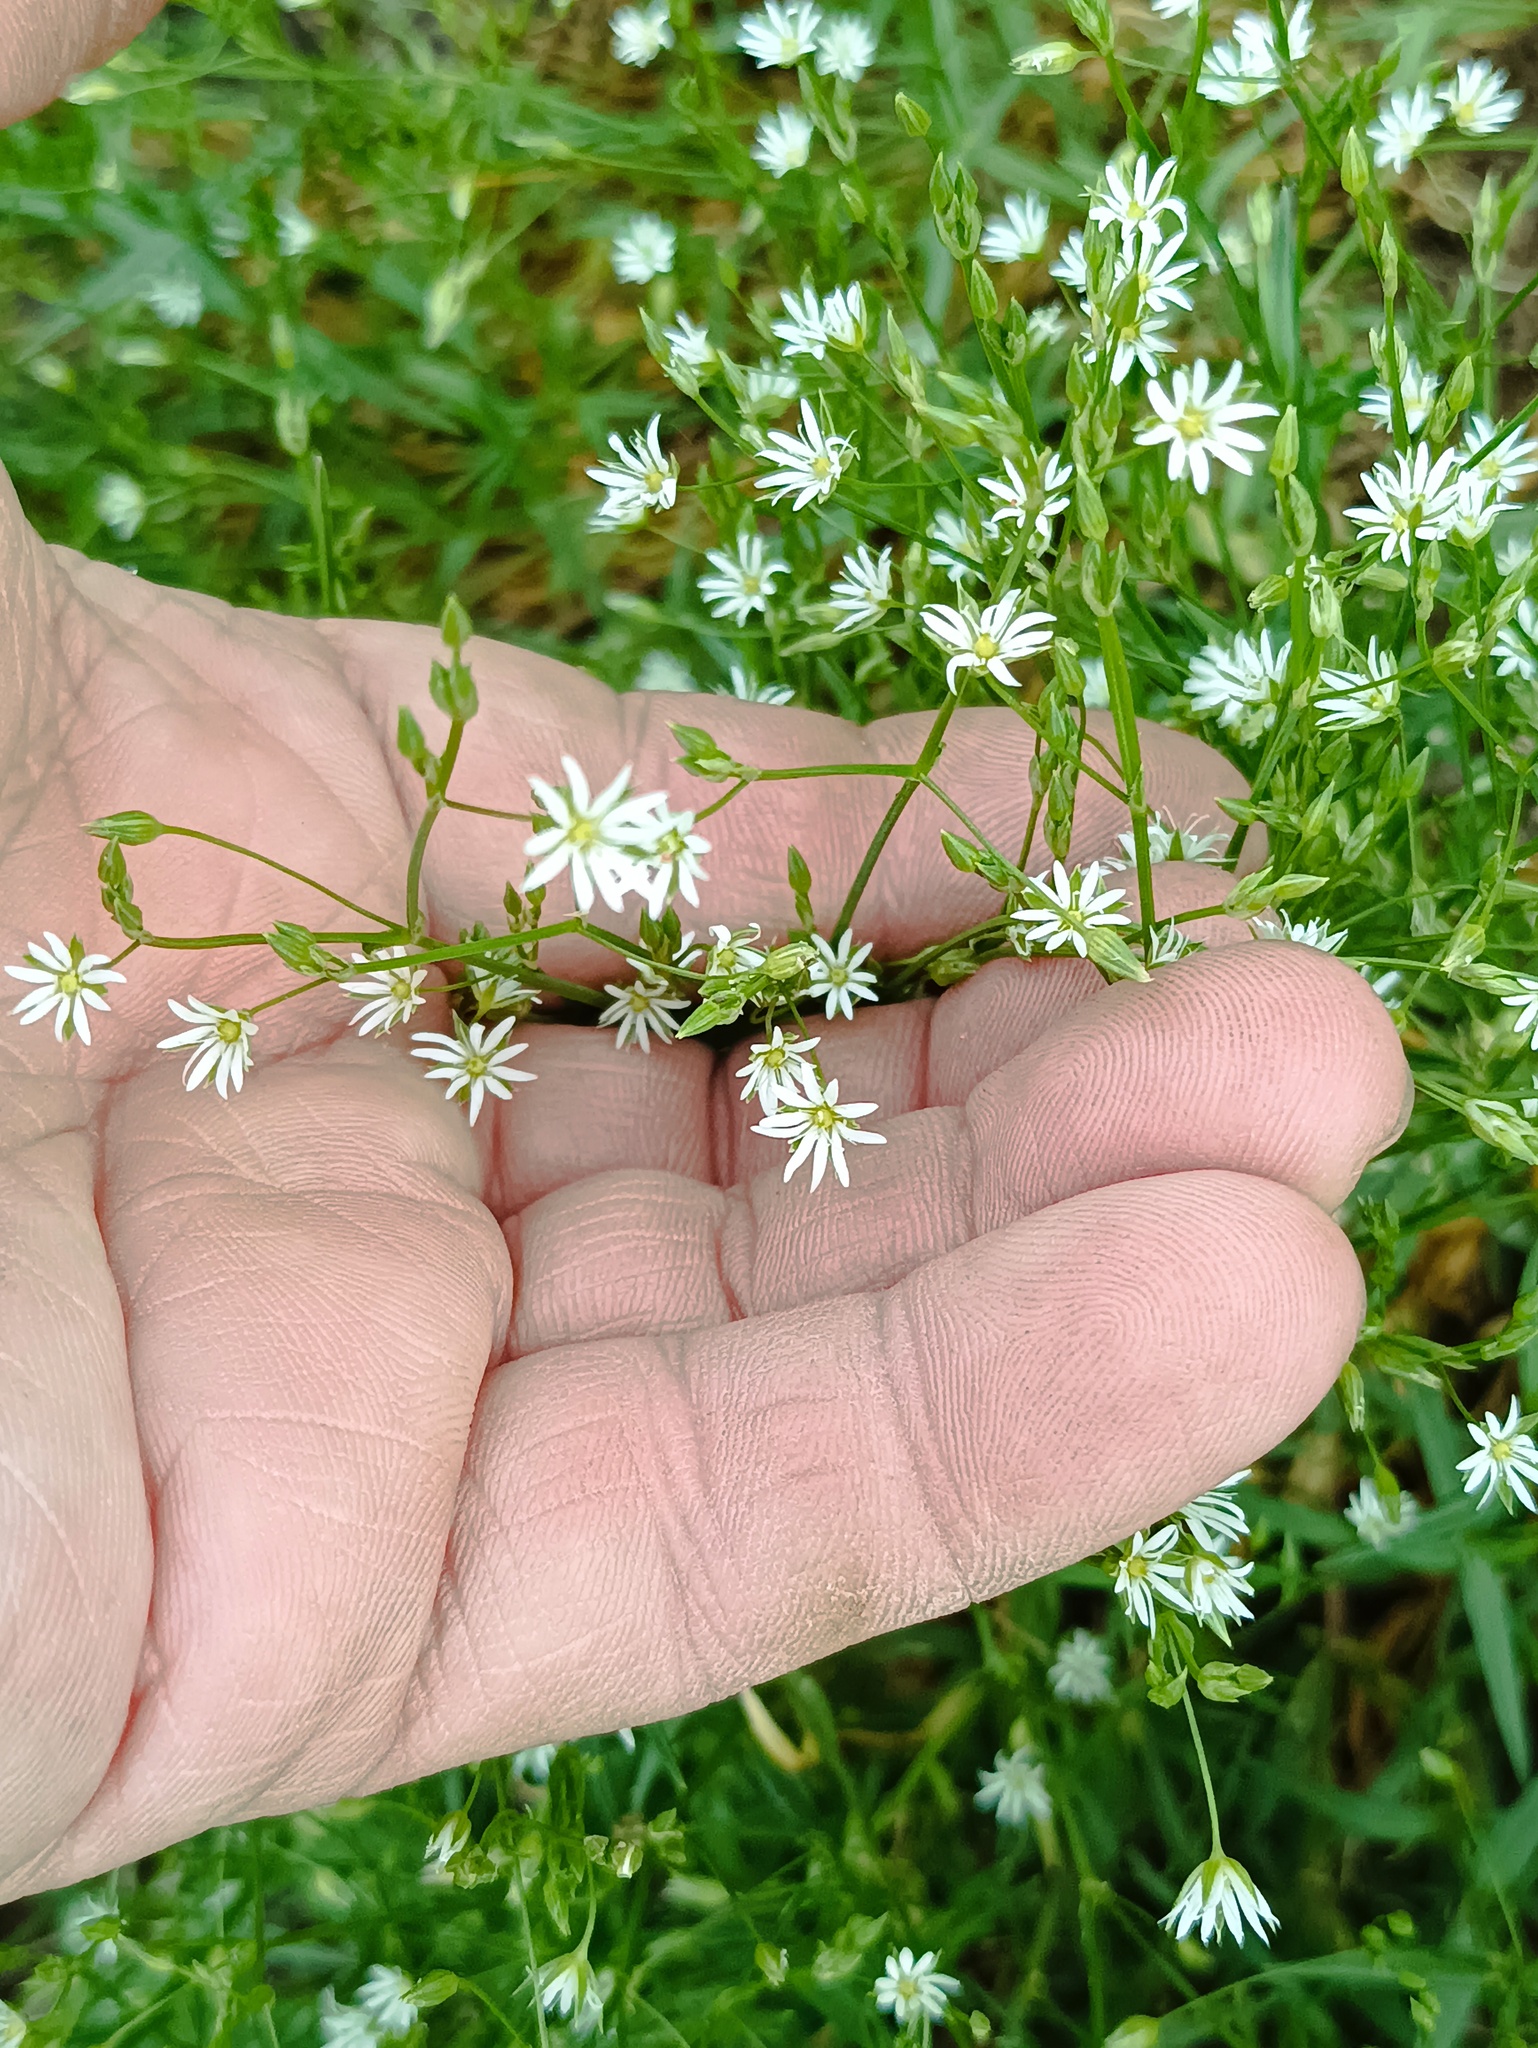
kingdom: Plantae
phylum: Tracheophyta
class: Magnoliopsida
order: Caryophyllales
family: Caryophyllaceae
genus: Stellaria
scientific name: Stellaria graminea
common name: Grass-like starwort
